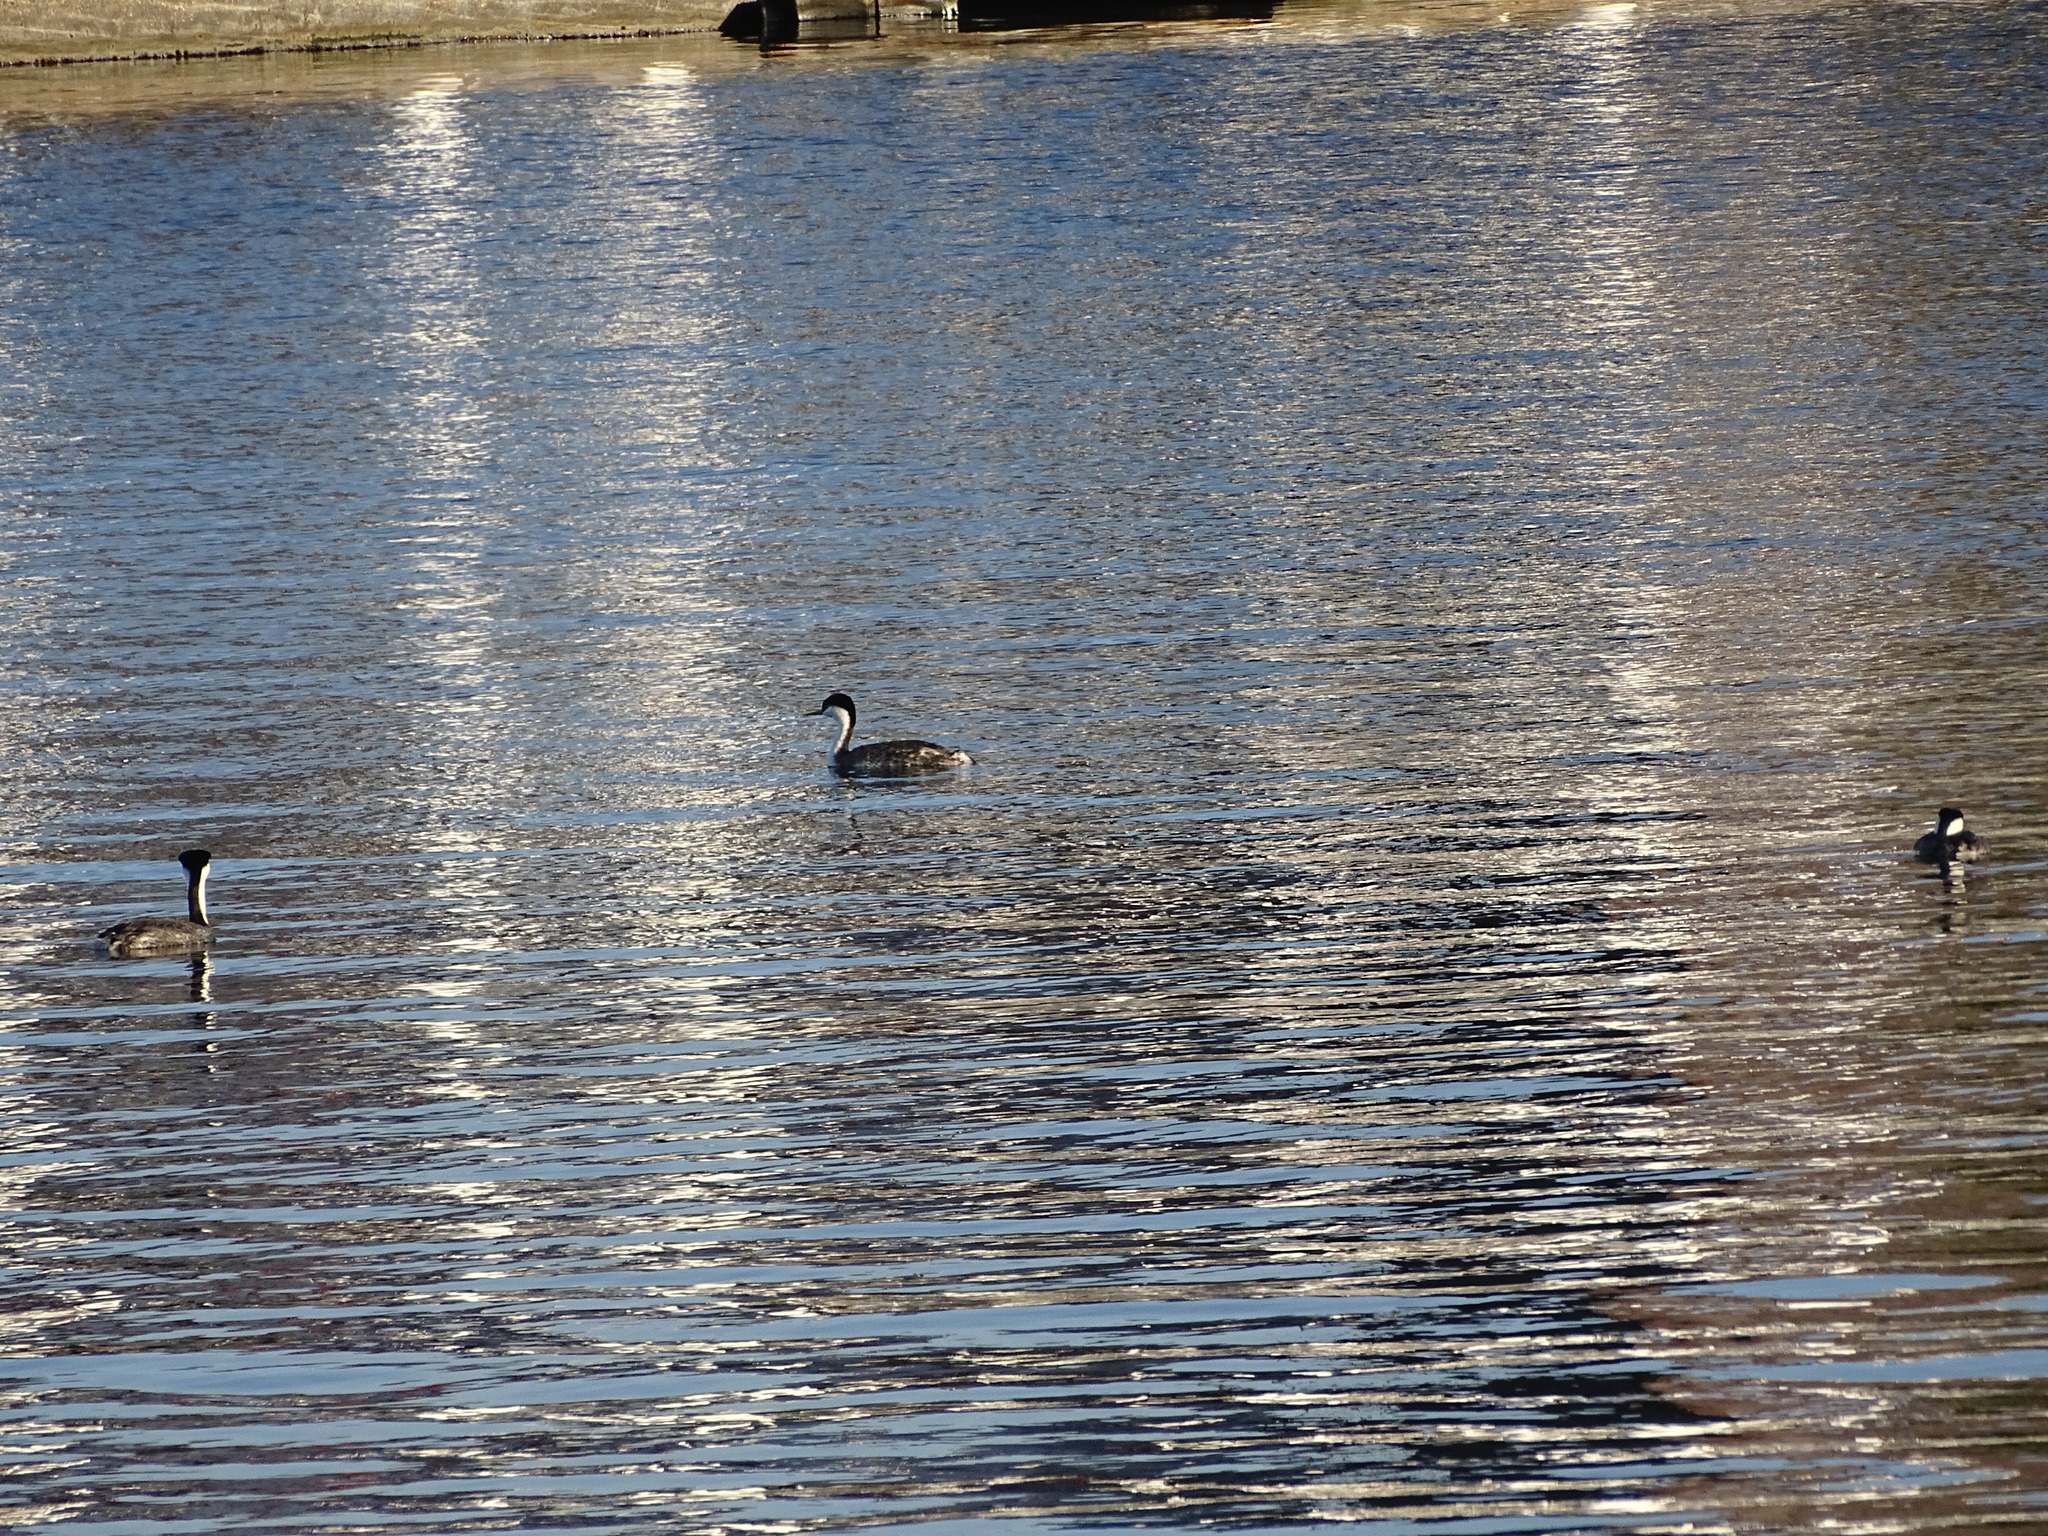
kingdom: Animalia
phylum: Chordata
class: Aves
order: Podicipediformes
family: Podicipedidae
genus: Aechmophorus
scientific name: Aechmophorus occidentalis
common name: Western grebe
